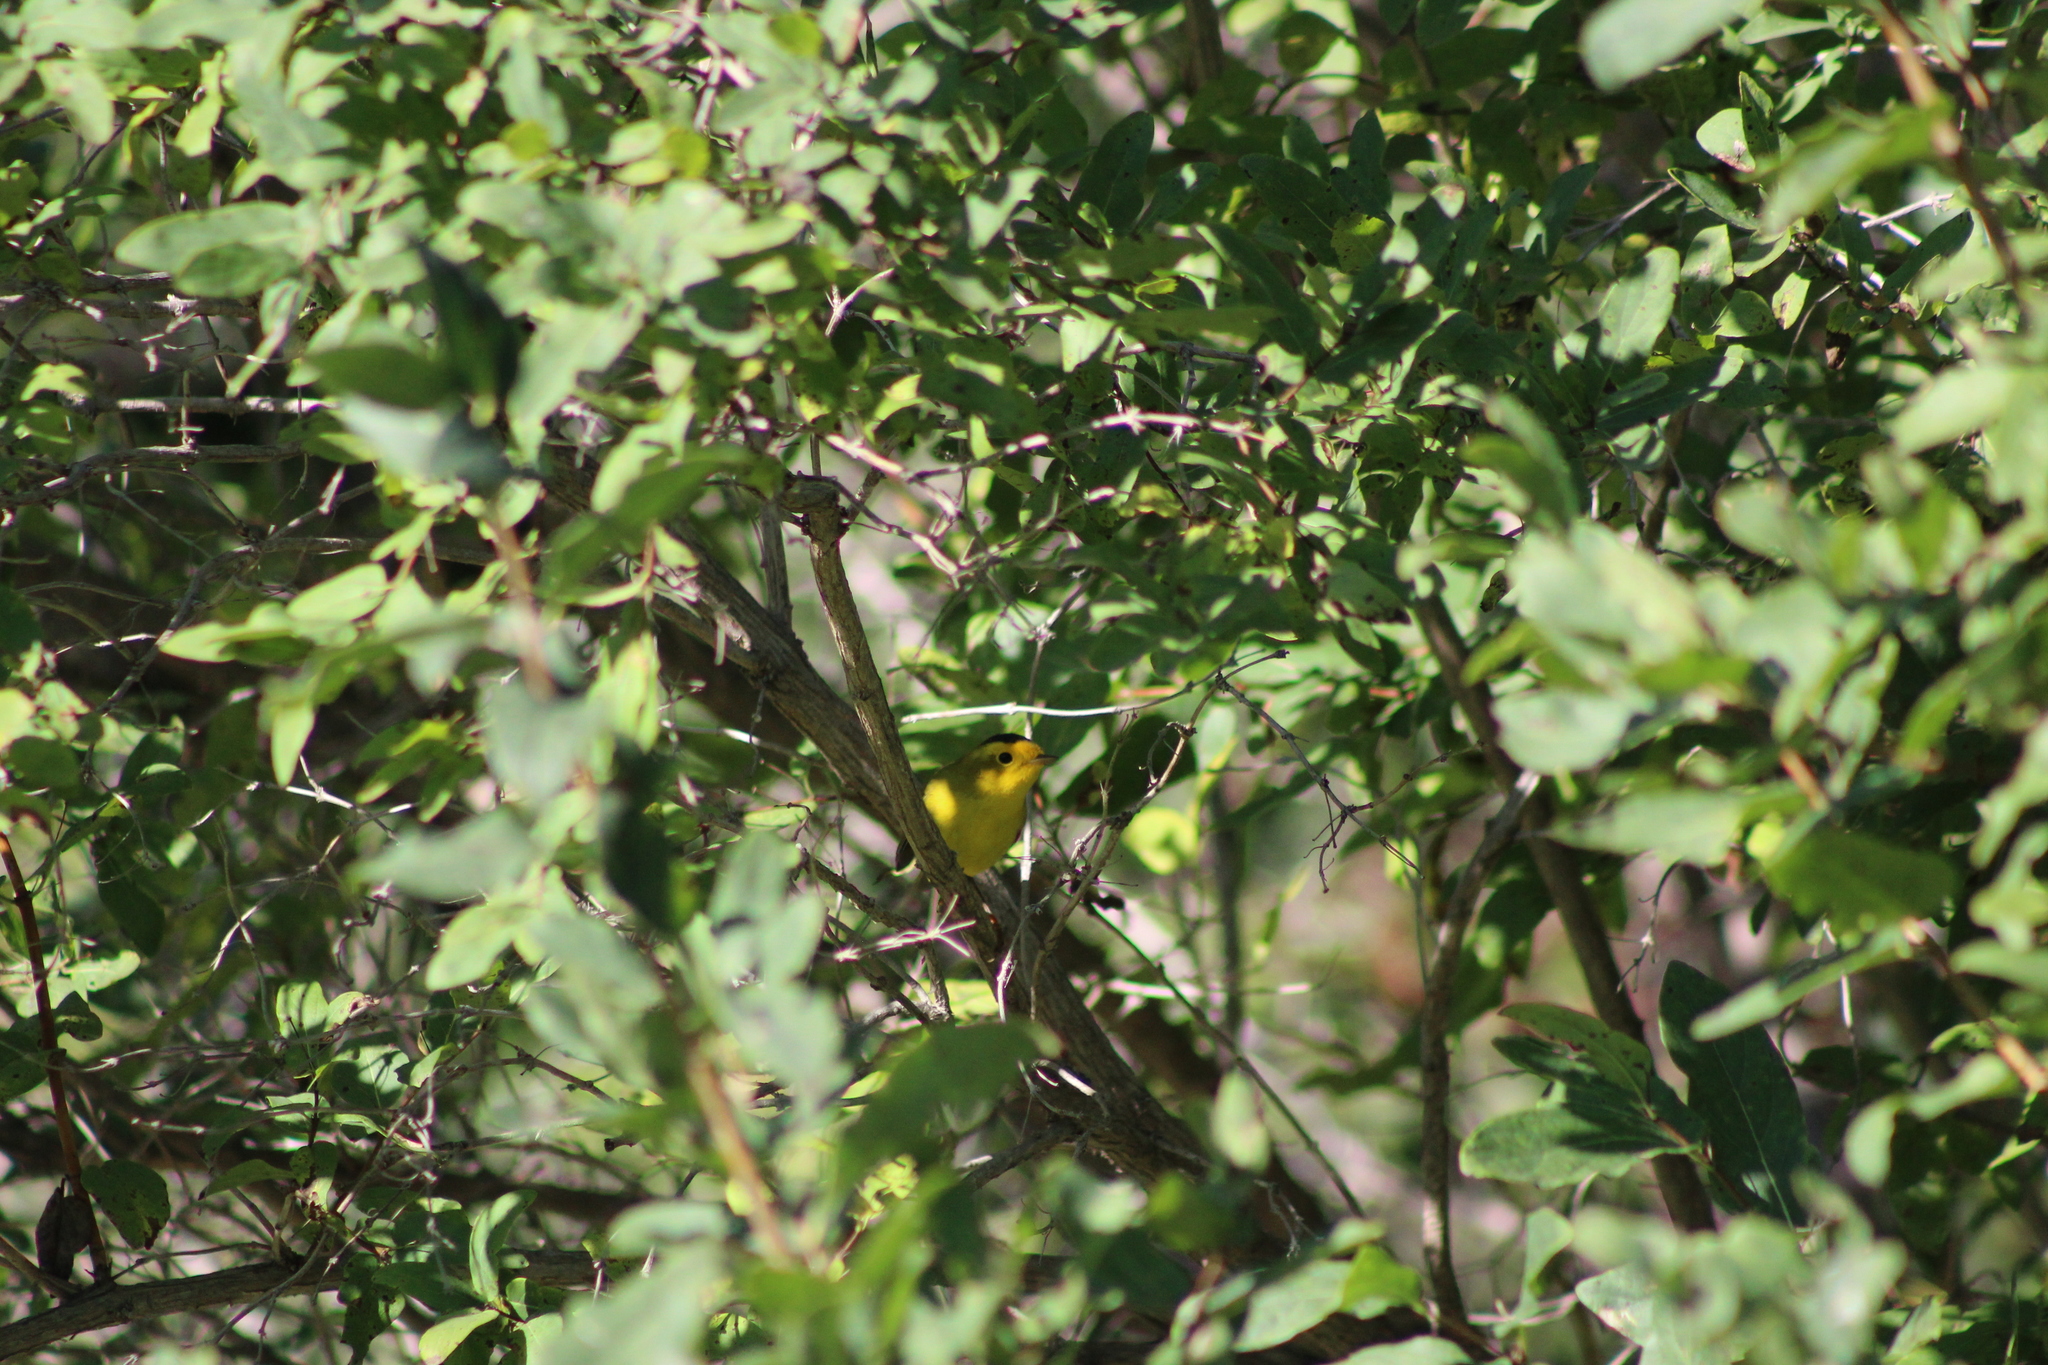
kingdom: Animalia
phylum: Chordata
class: Aves
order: Passeriformes
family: Parulidae
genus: Cardellina
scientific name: Cardellina pusilla
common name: Wilson's warbler
